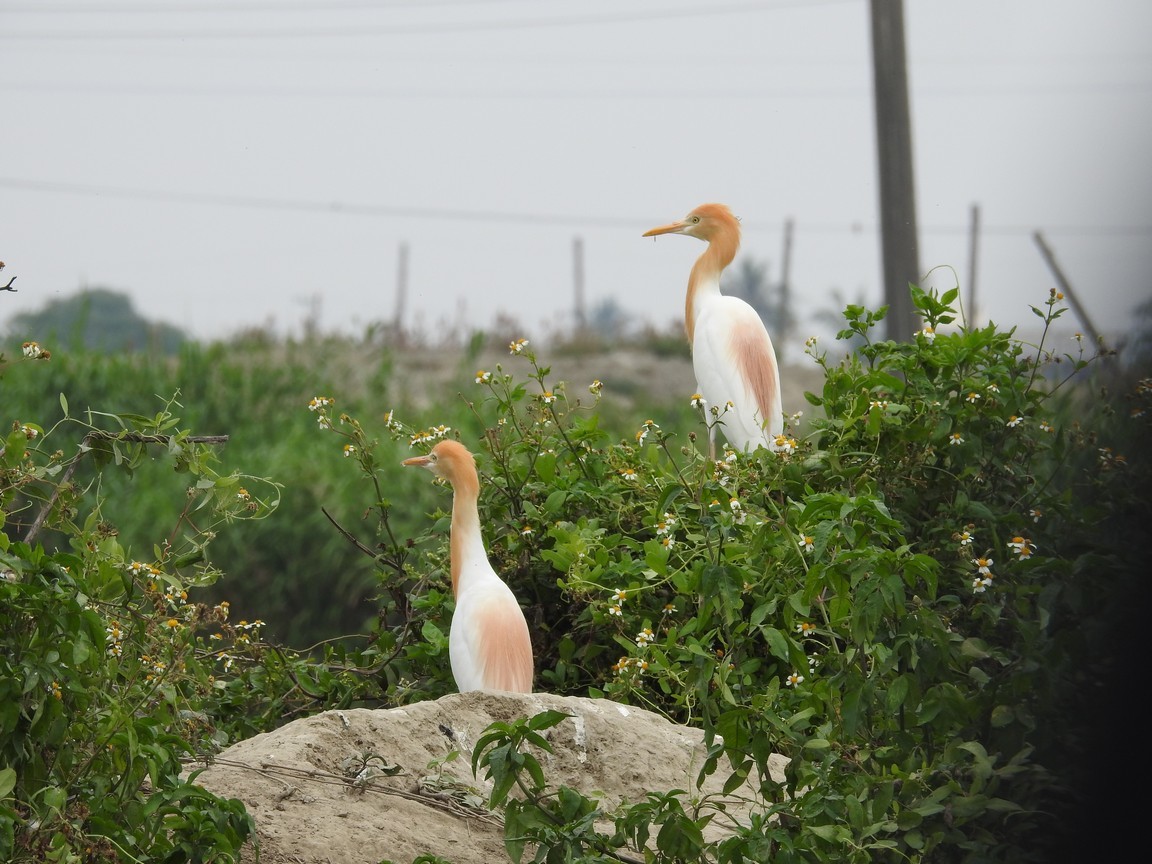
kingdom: Animalia
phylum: Chordata
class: Aves
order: Pelecaniformes
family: Ardeidae
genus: Bubulcus
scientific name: Bubulcus coromandus
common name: Eastern cattle egret
